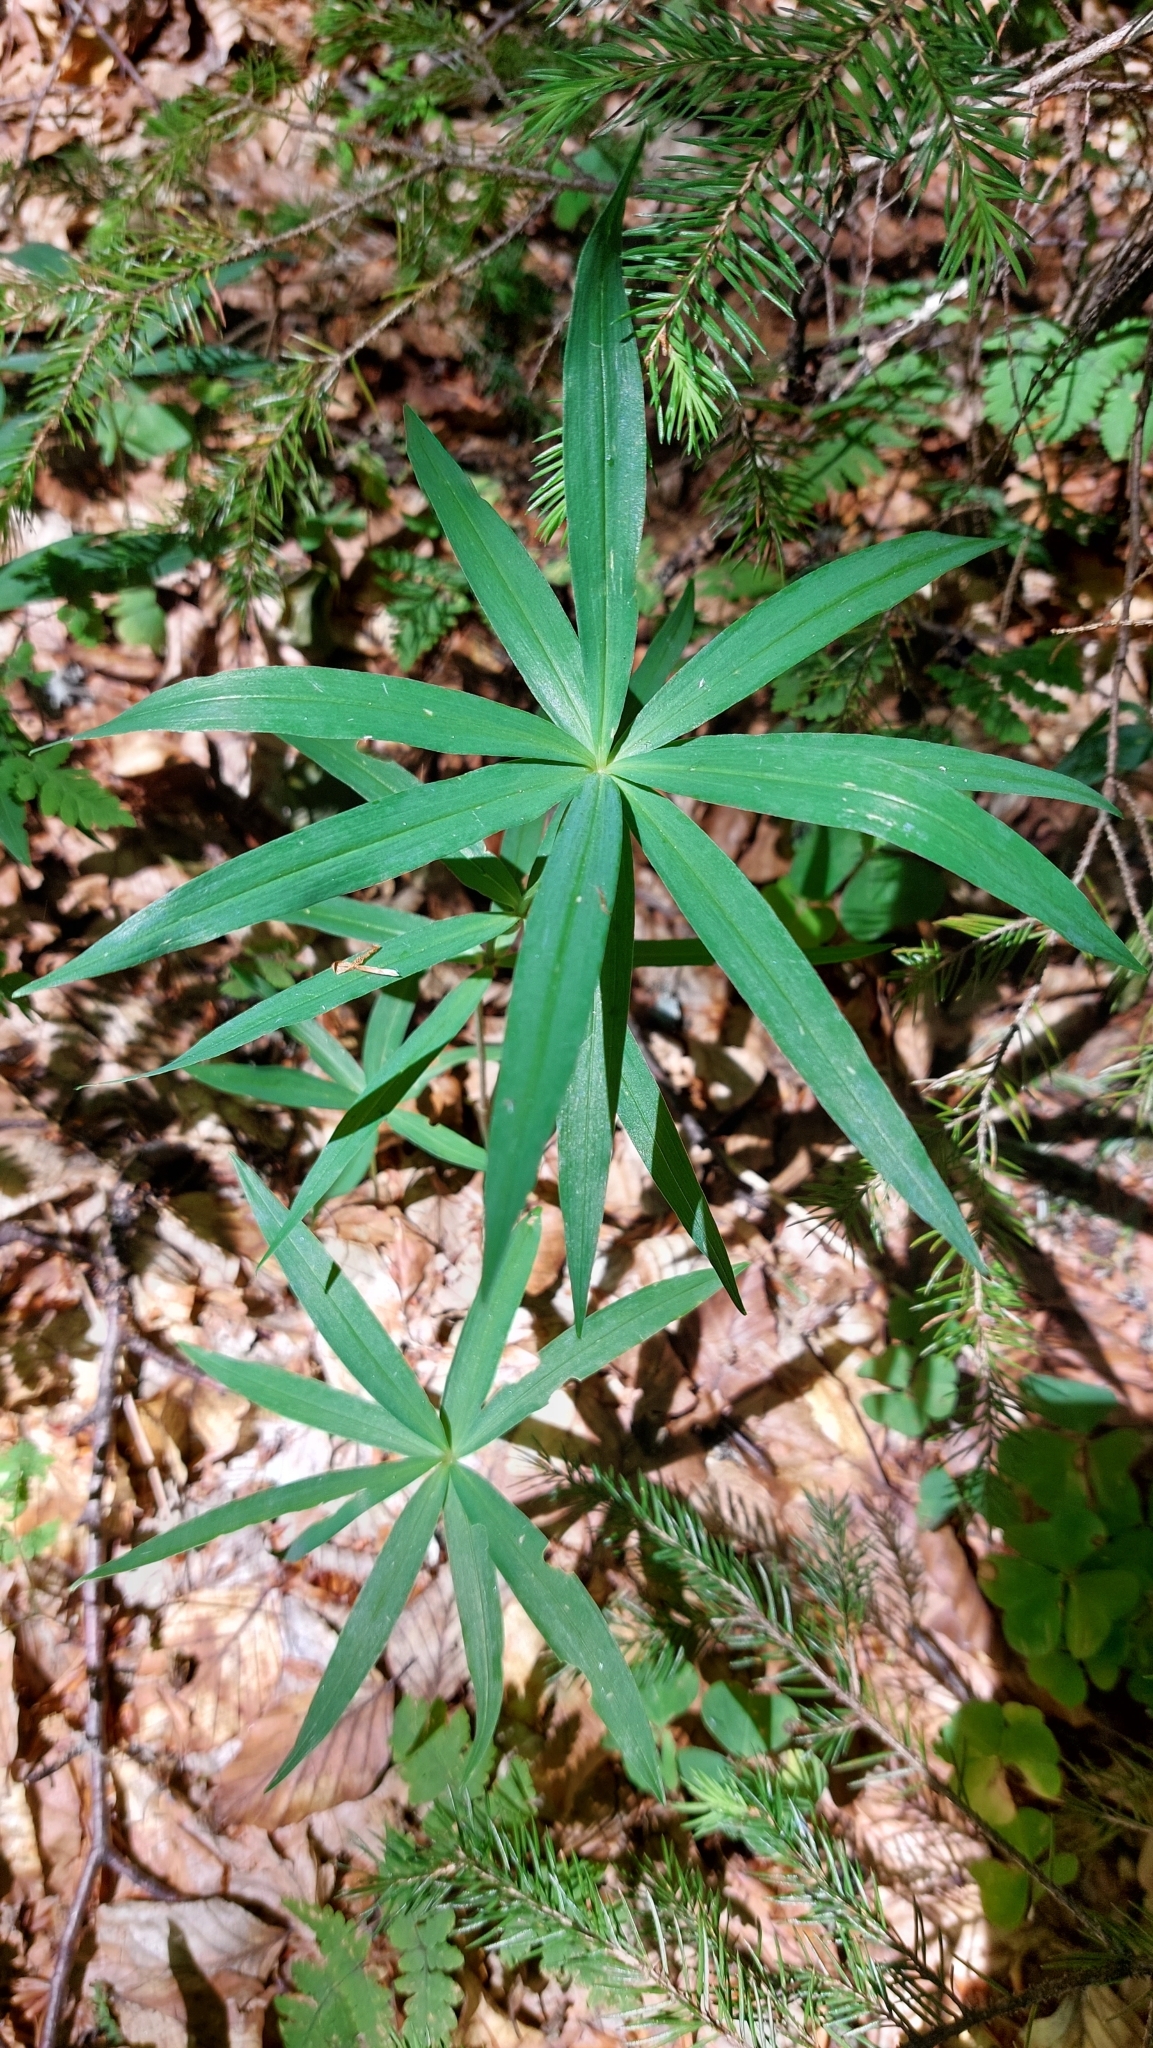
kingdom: Plantae
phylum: Tracheophyta
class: Liliopsida
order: Asparagales
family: Asparagaceae
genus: Polygonatum
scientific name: Polygonatum verticillatum
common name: Whorled solomon's-seal
